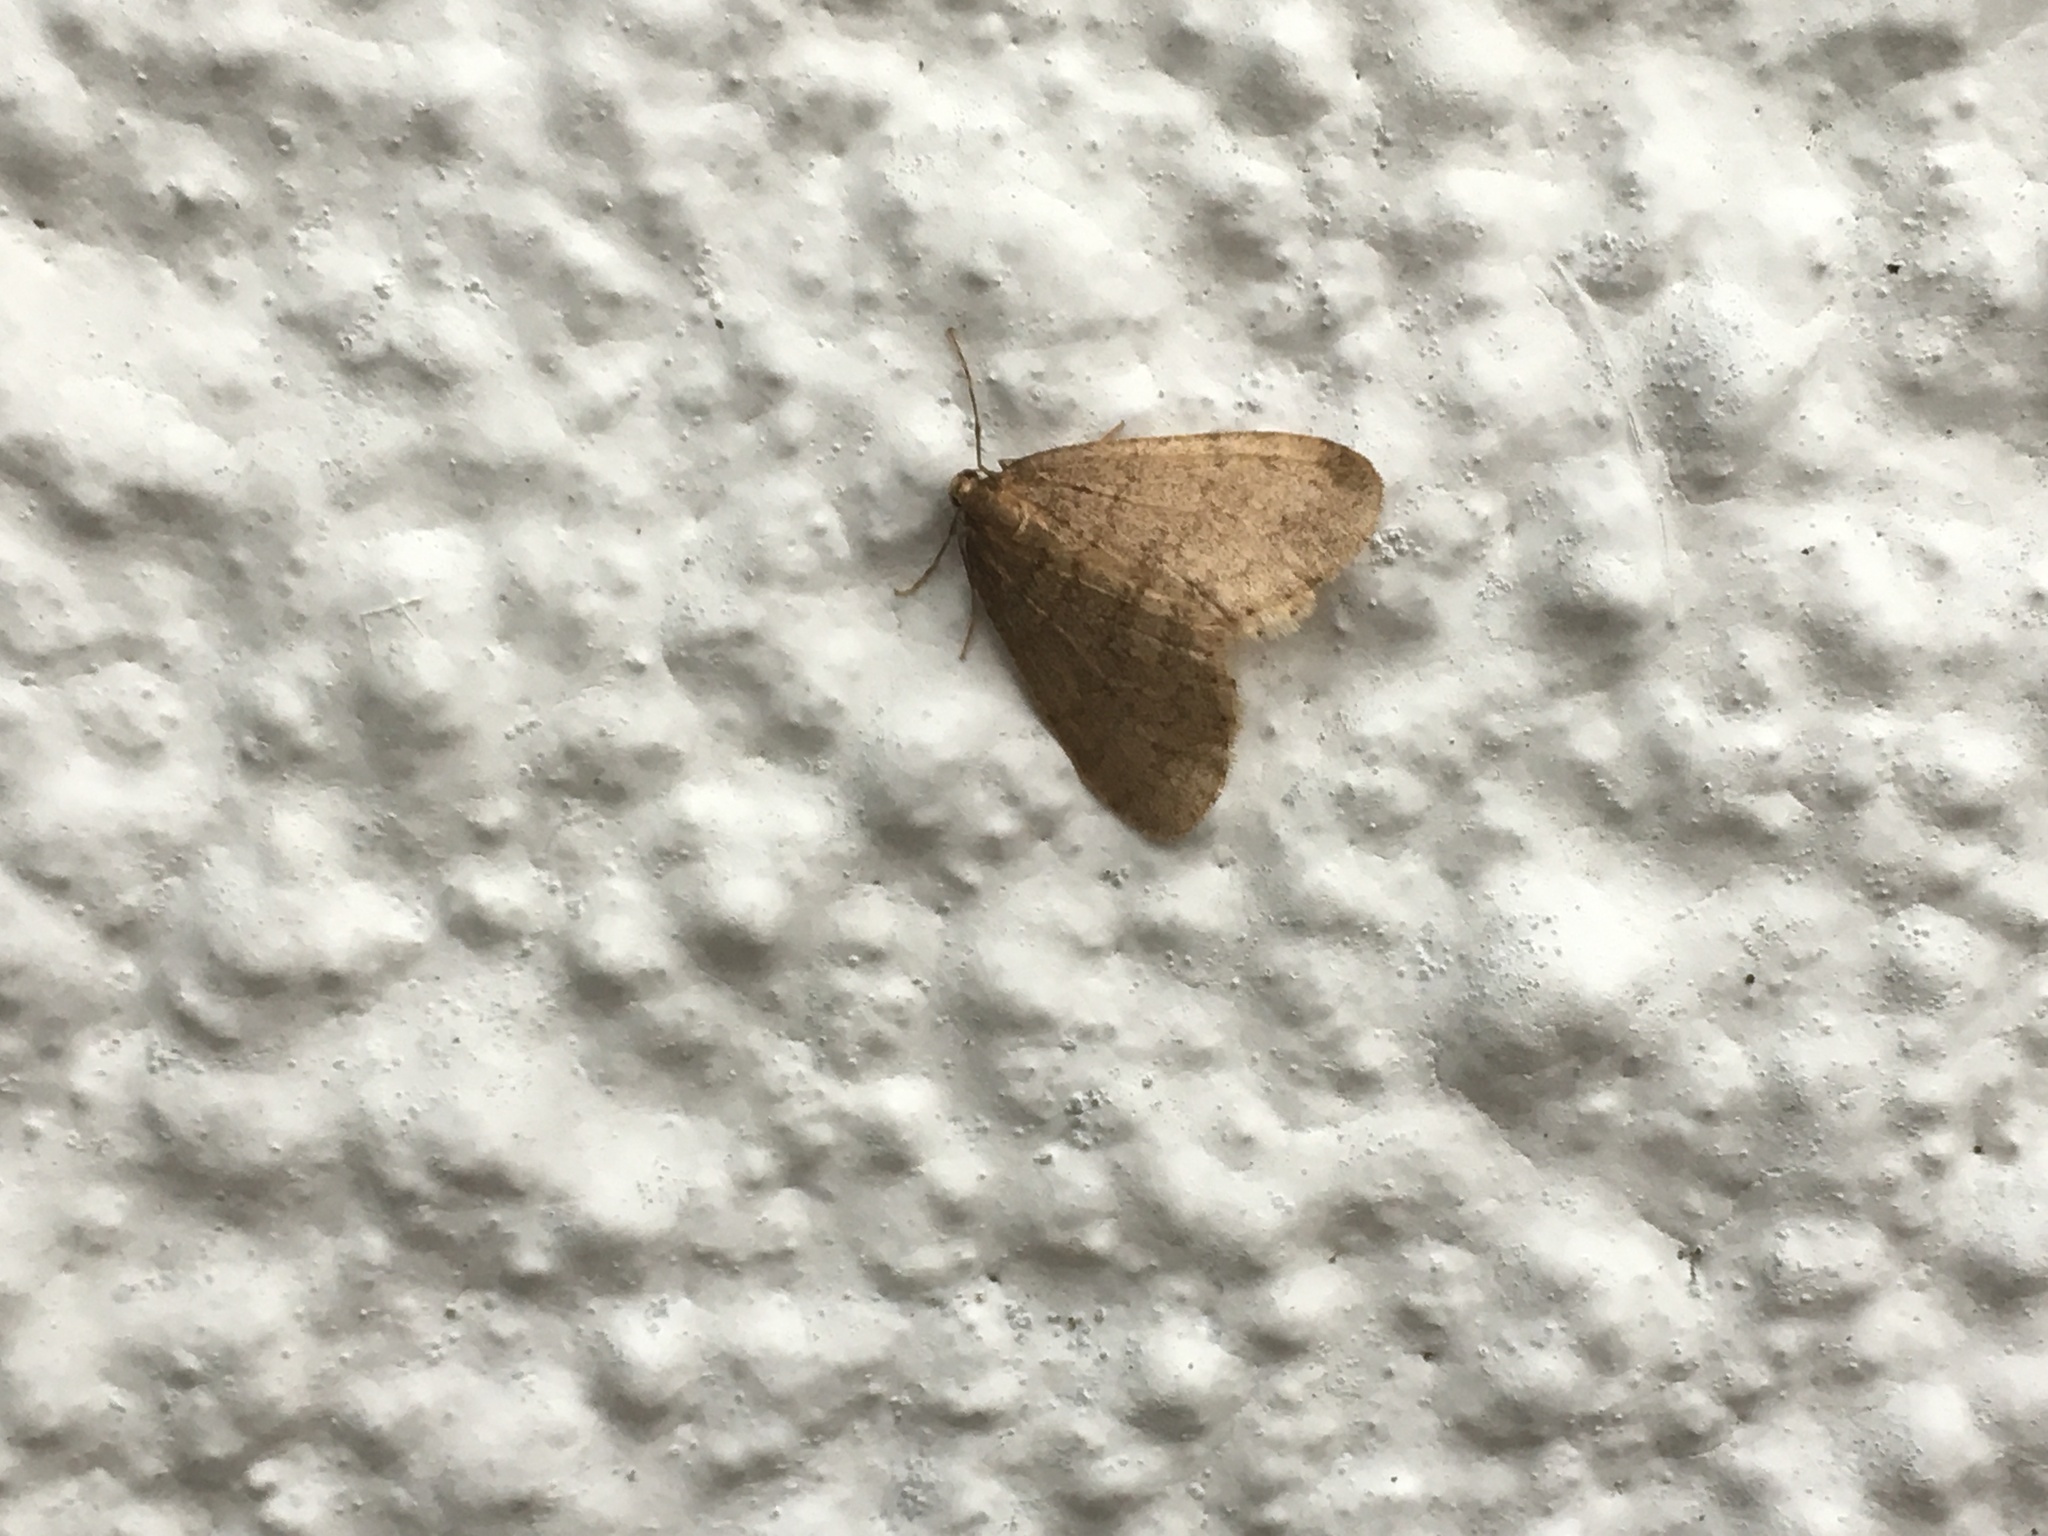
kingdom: Animalia
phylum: Arthropoda
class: Insecta
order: Lepidoptera
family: Geometridae
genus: Operophtera
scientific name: Operophtera brumata
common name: Winter moth
